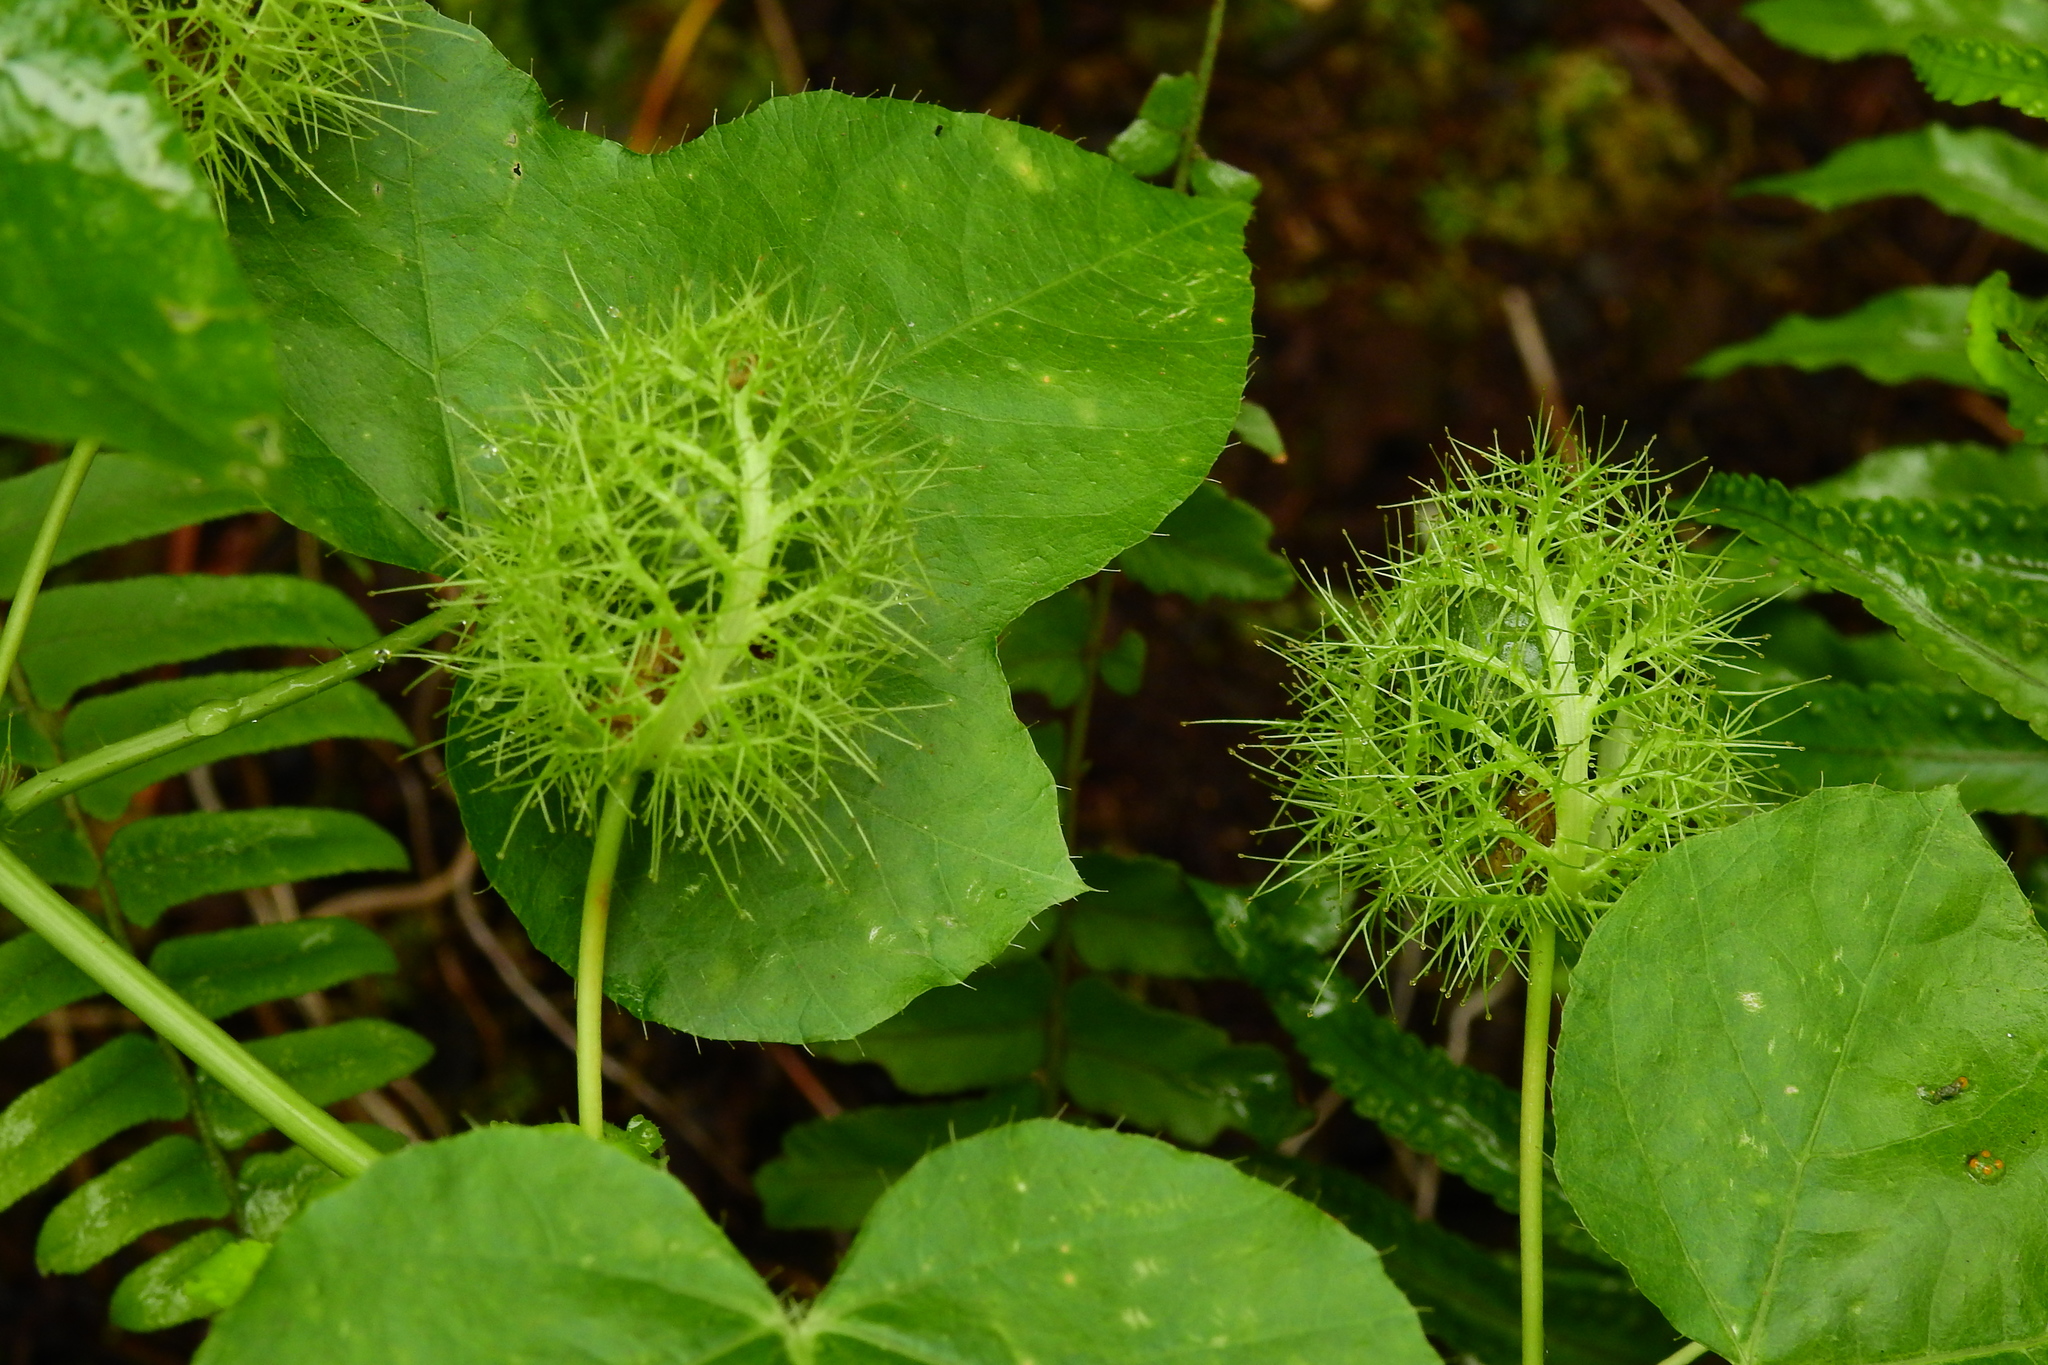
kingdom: Plantae
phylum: Tracheophyta
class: Magnoliopsida
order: Malpighiales
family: Passifloraceae
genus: Passiflora
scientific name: Passiflora foetida
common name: Fetid passionflower
